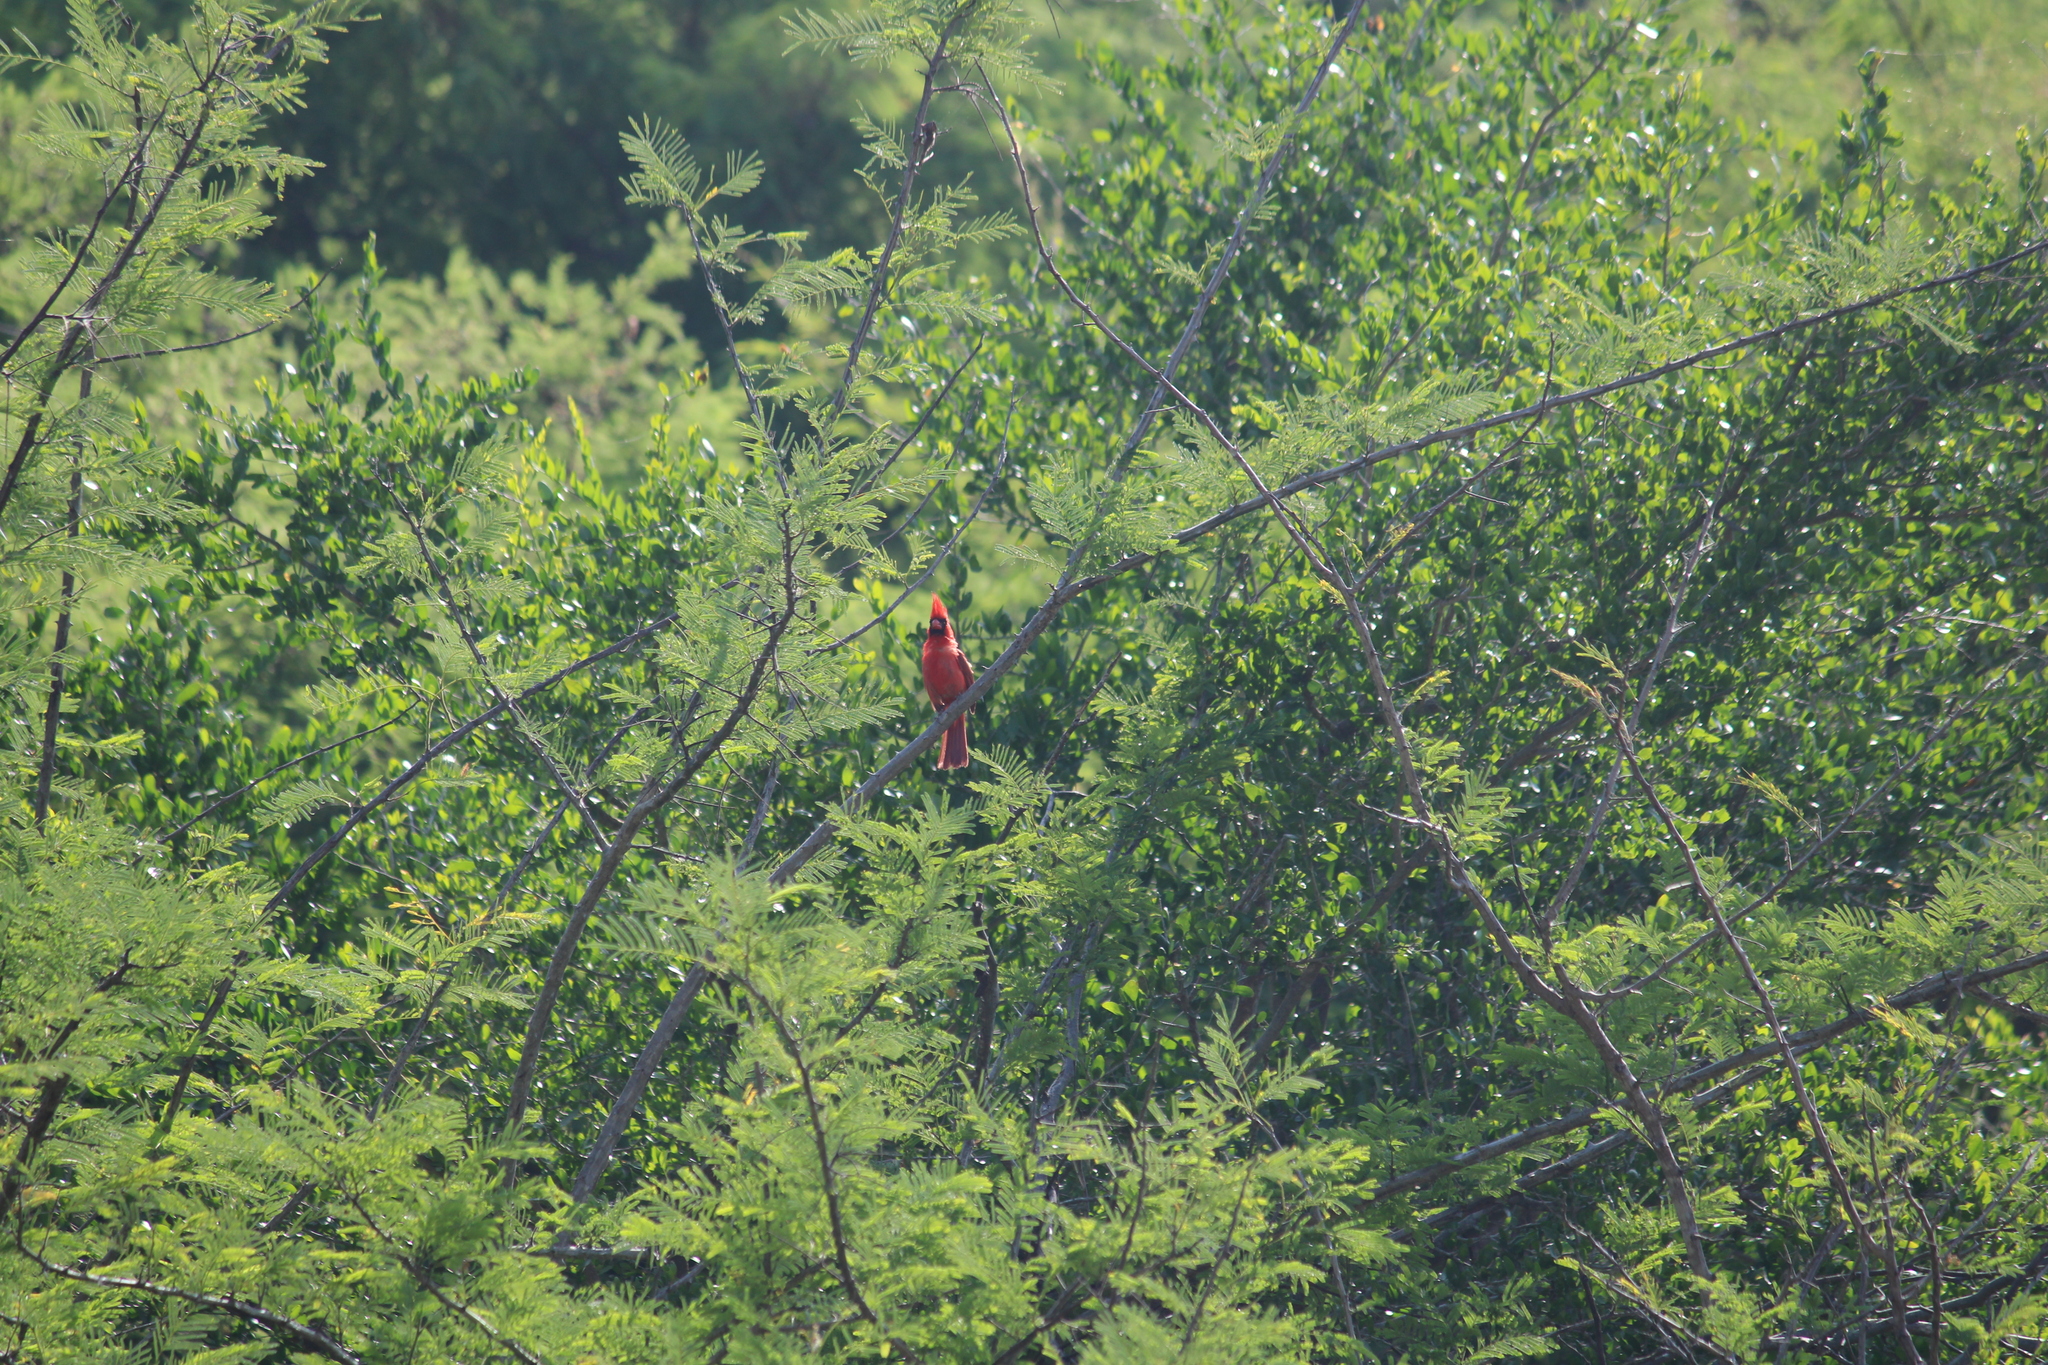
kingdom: Animalia
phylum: Chordata
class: Aves
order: Passeriformes
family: Cardinalidae
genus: Cardinalis
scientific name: Cardinalis cardinalis
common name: Northern cardinal
